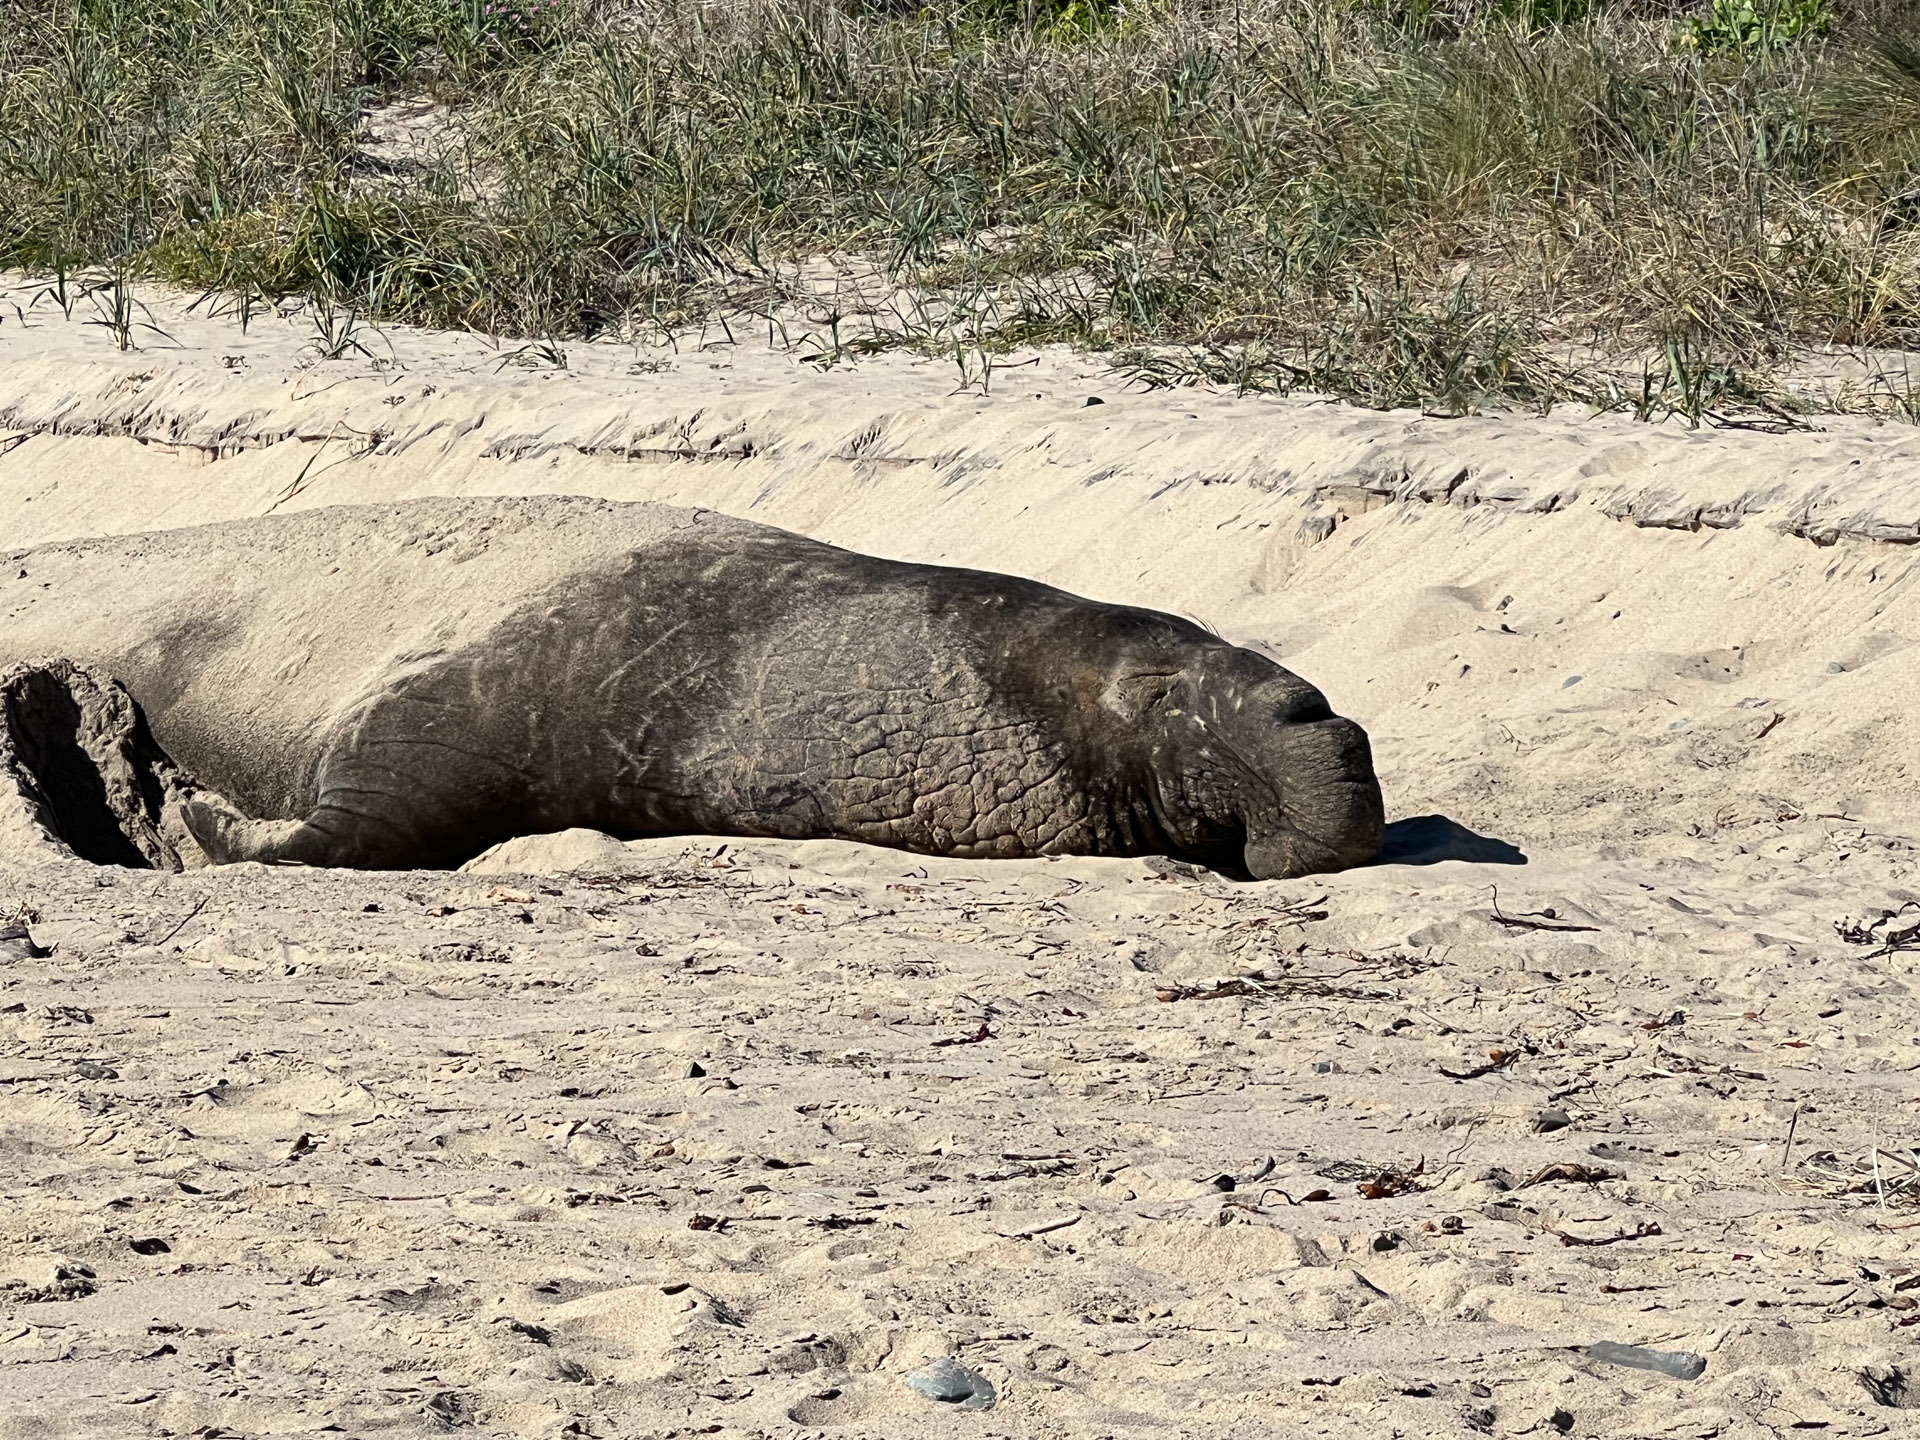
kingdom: Animalia
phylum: Chordata
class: Mammalia
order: Carnivora
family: Phocidae
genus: Mirounga
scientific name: Mirounga angustirostris
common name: Northern elephant seal
